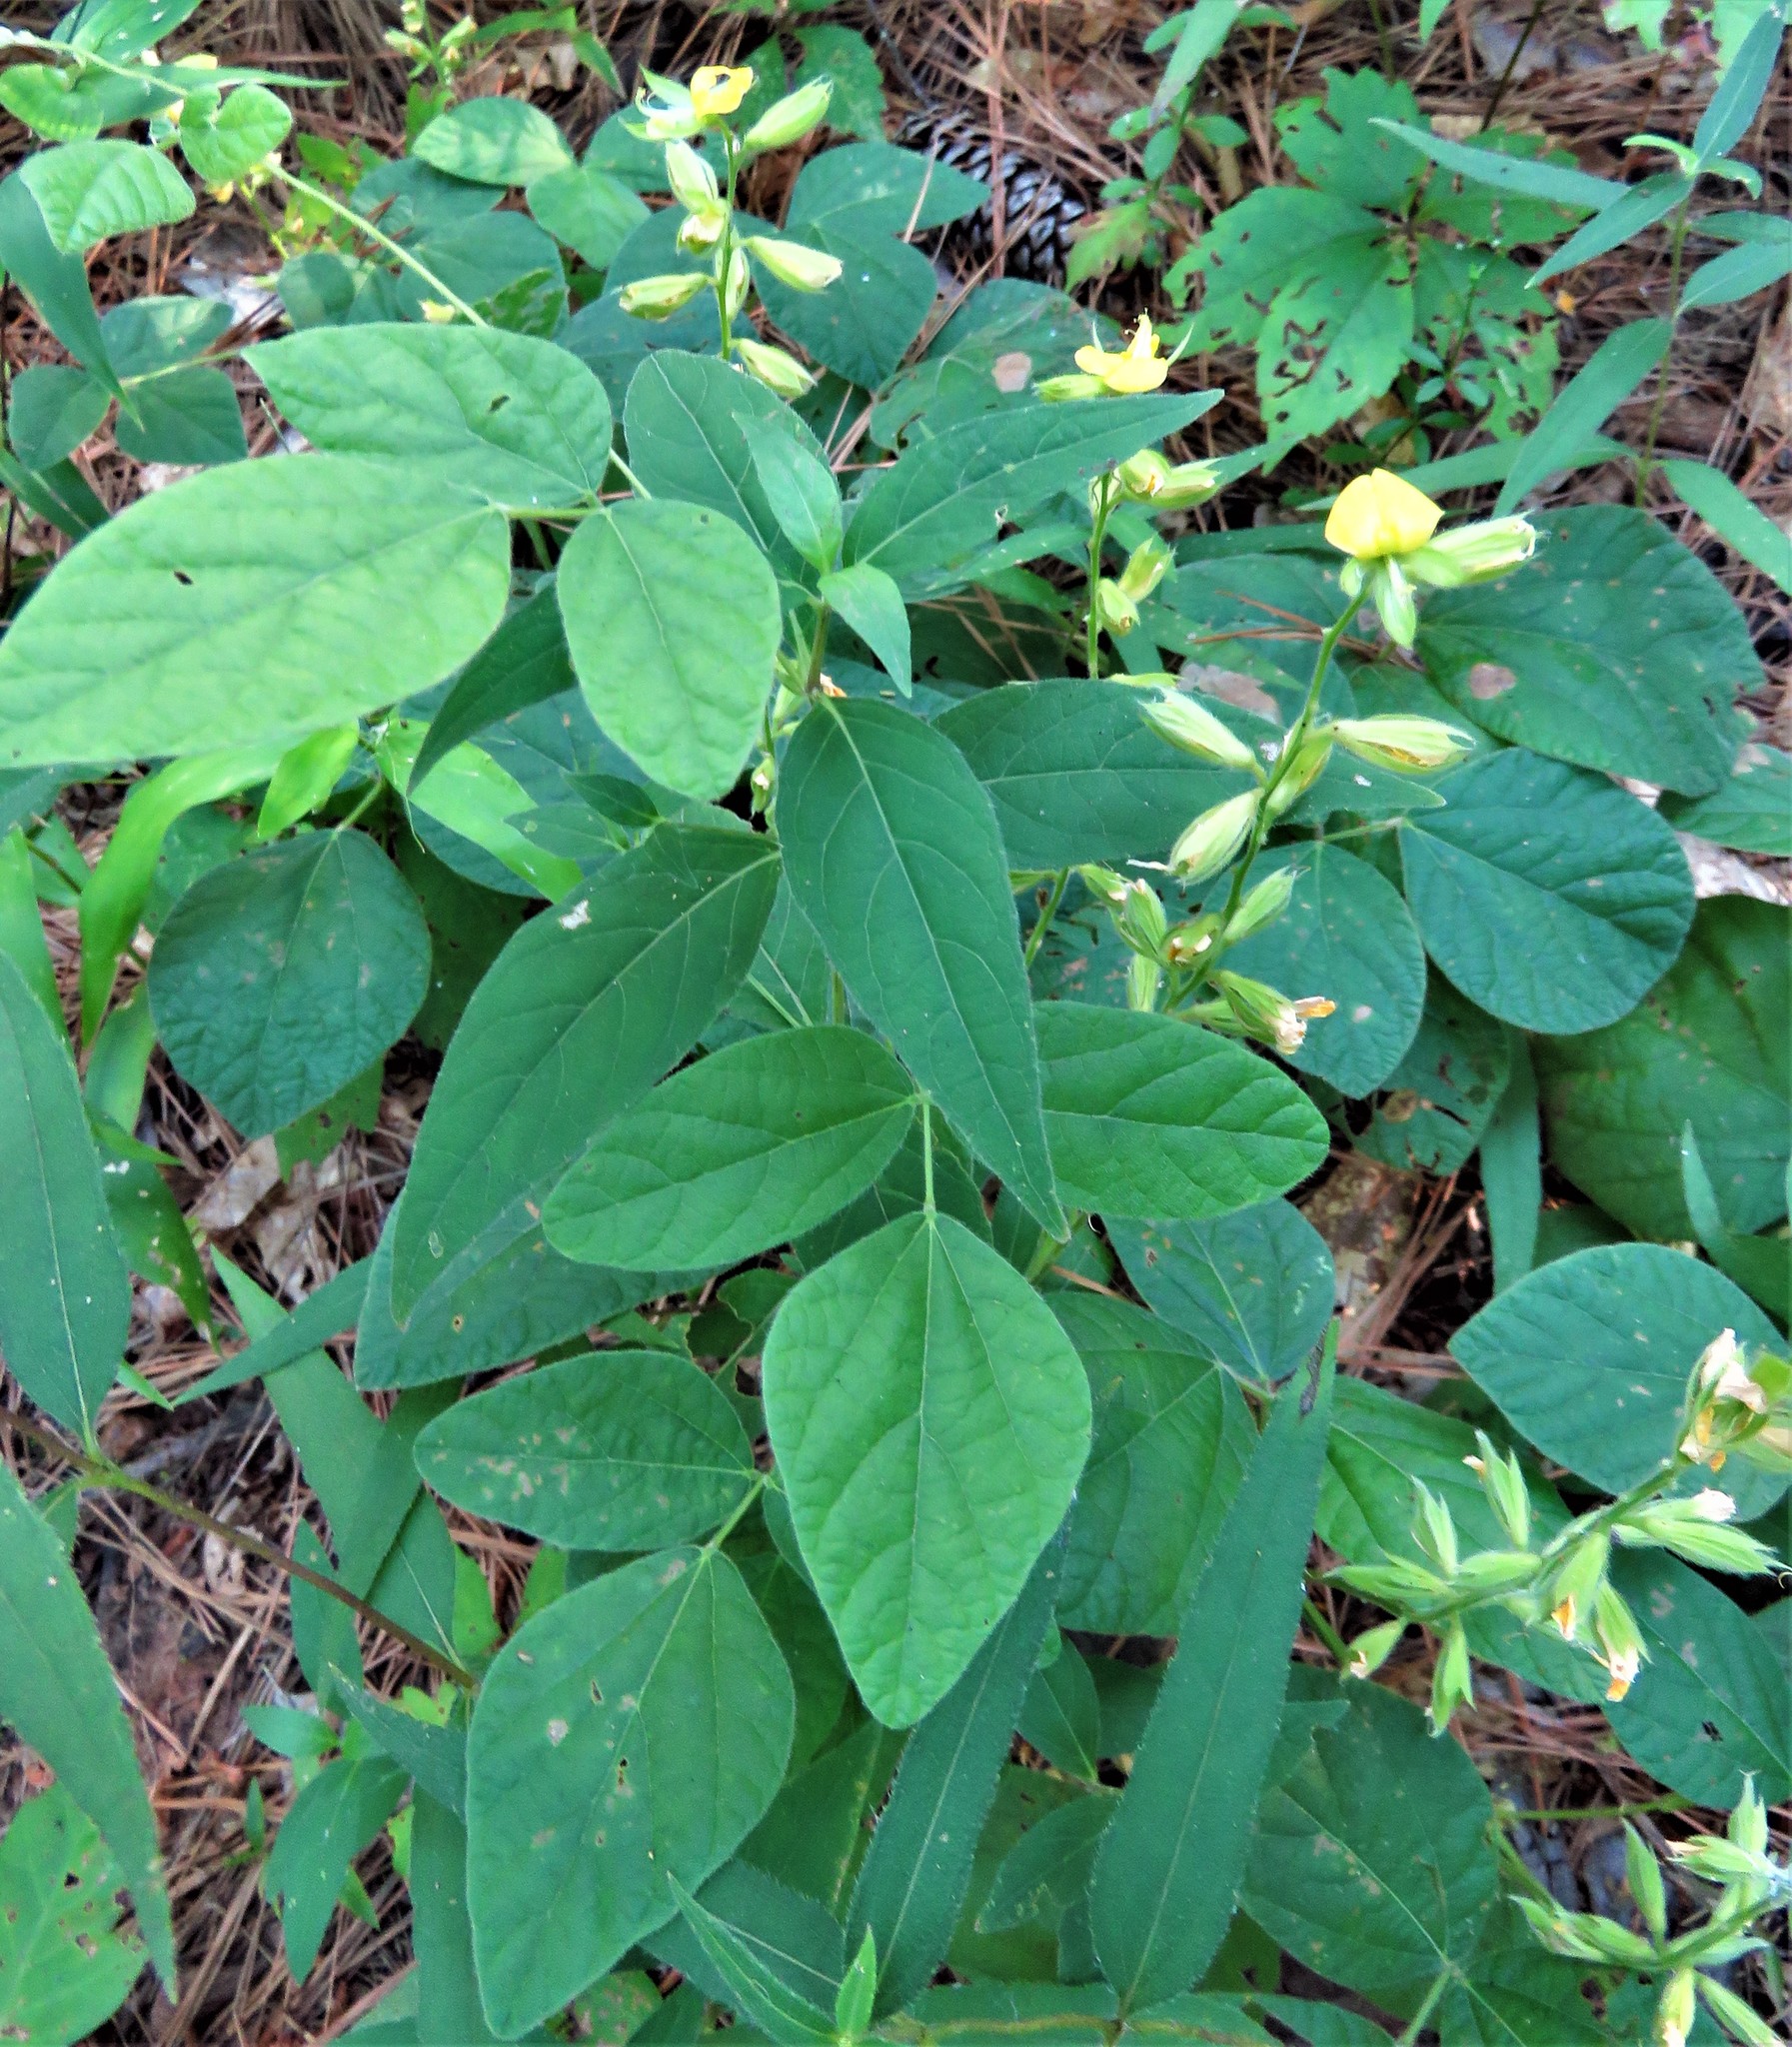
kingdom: Plantae
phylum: Tracheophyta
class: Magnoliopsida
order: Fabales
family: Fabaceae
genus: Rhynchosia
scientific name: Rhynchosia latifolia
